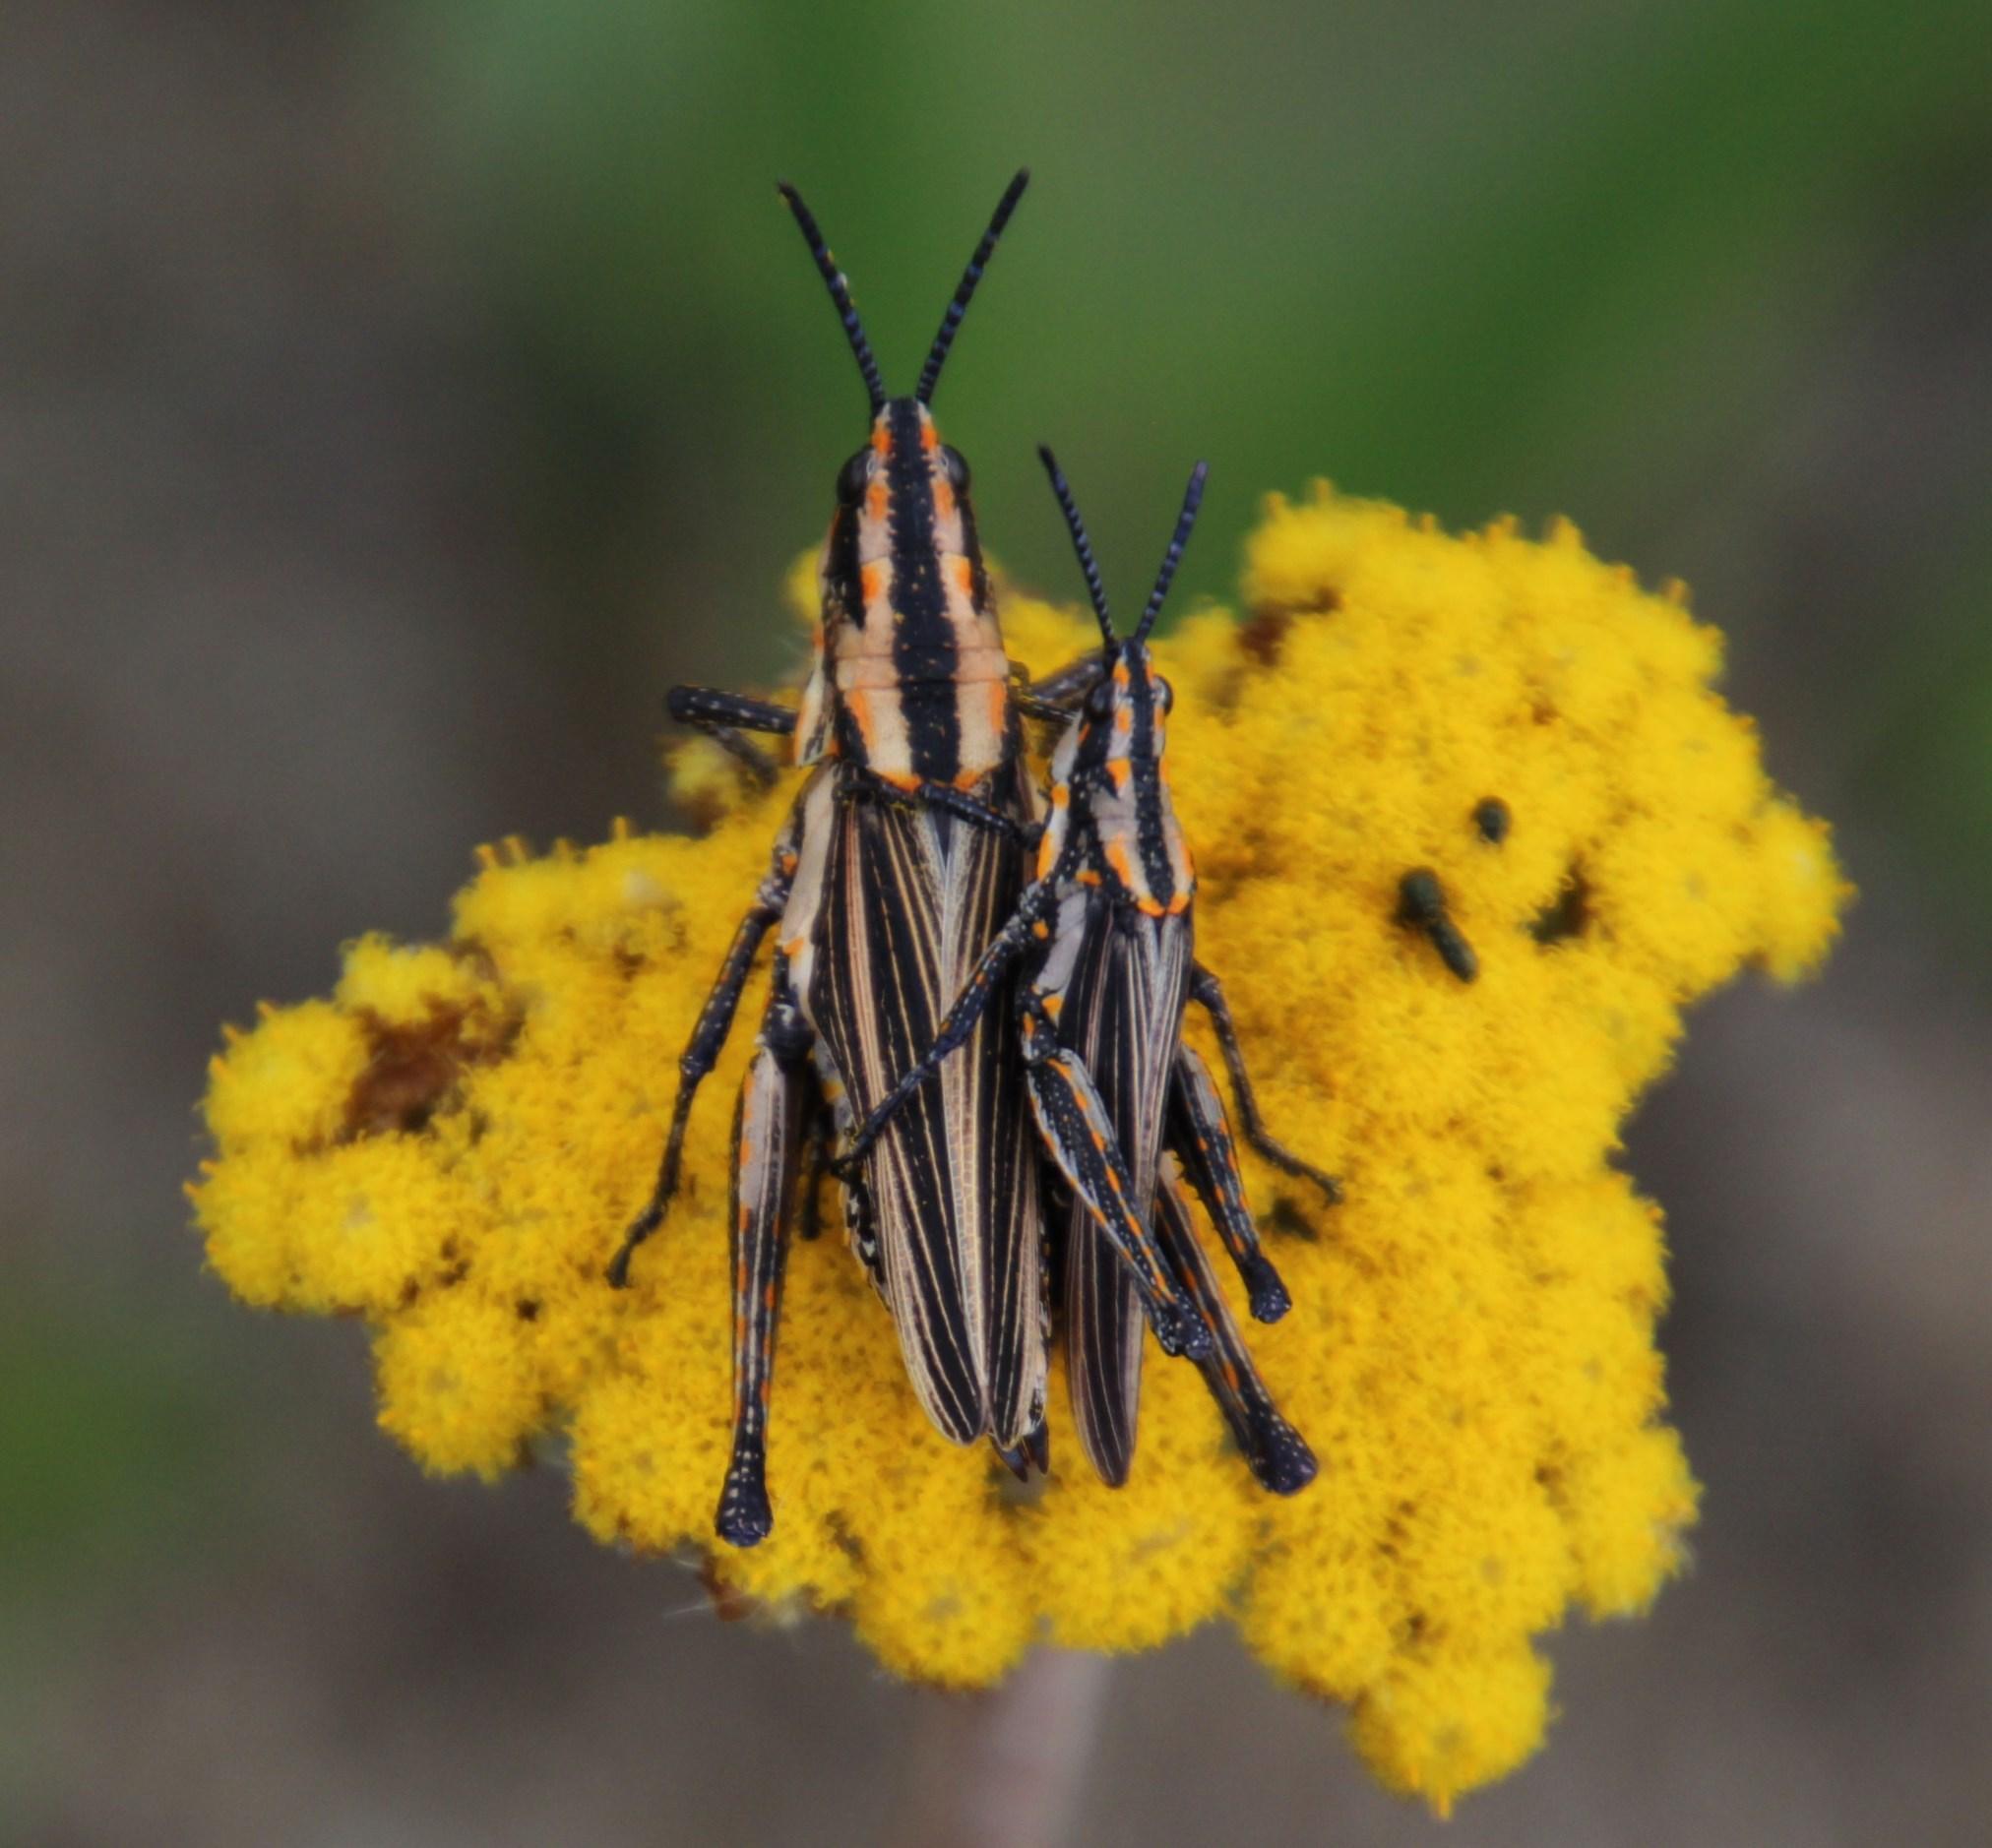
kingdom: Animalia
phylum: Arthropoda
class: Insecta
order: Orthoptera
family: Pyrgomorphidae
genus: Ochrophlebia
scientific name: Ochrophlebia cafra
